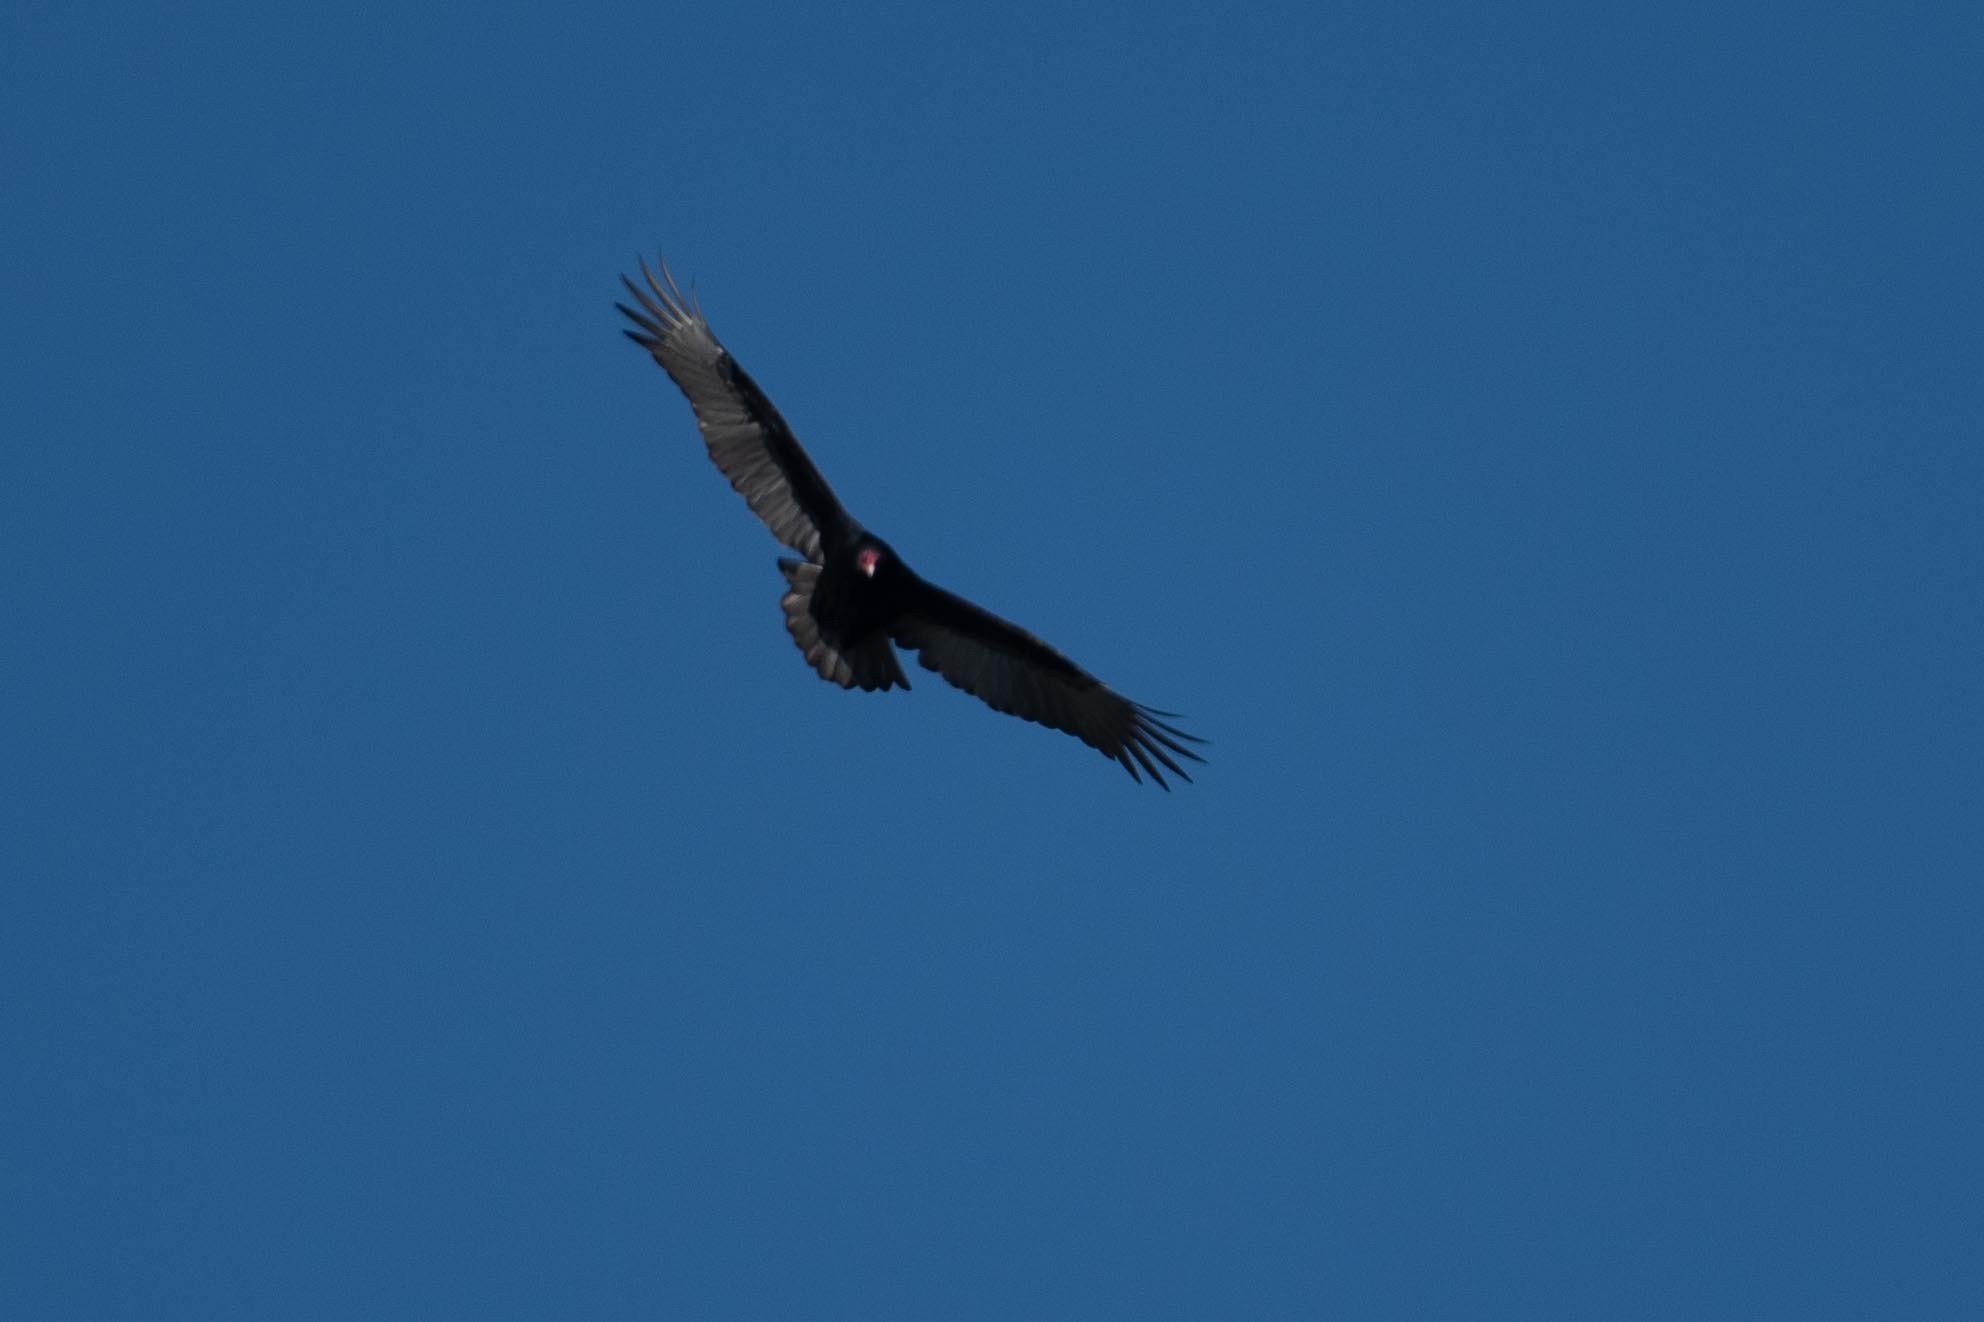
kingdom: Animalia
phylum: Chordata
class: Aves
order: Accipitriformes
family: Cathartidae
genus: Cathartes
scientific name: Cathartes aura
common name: Turkey vulture
